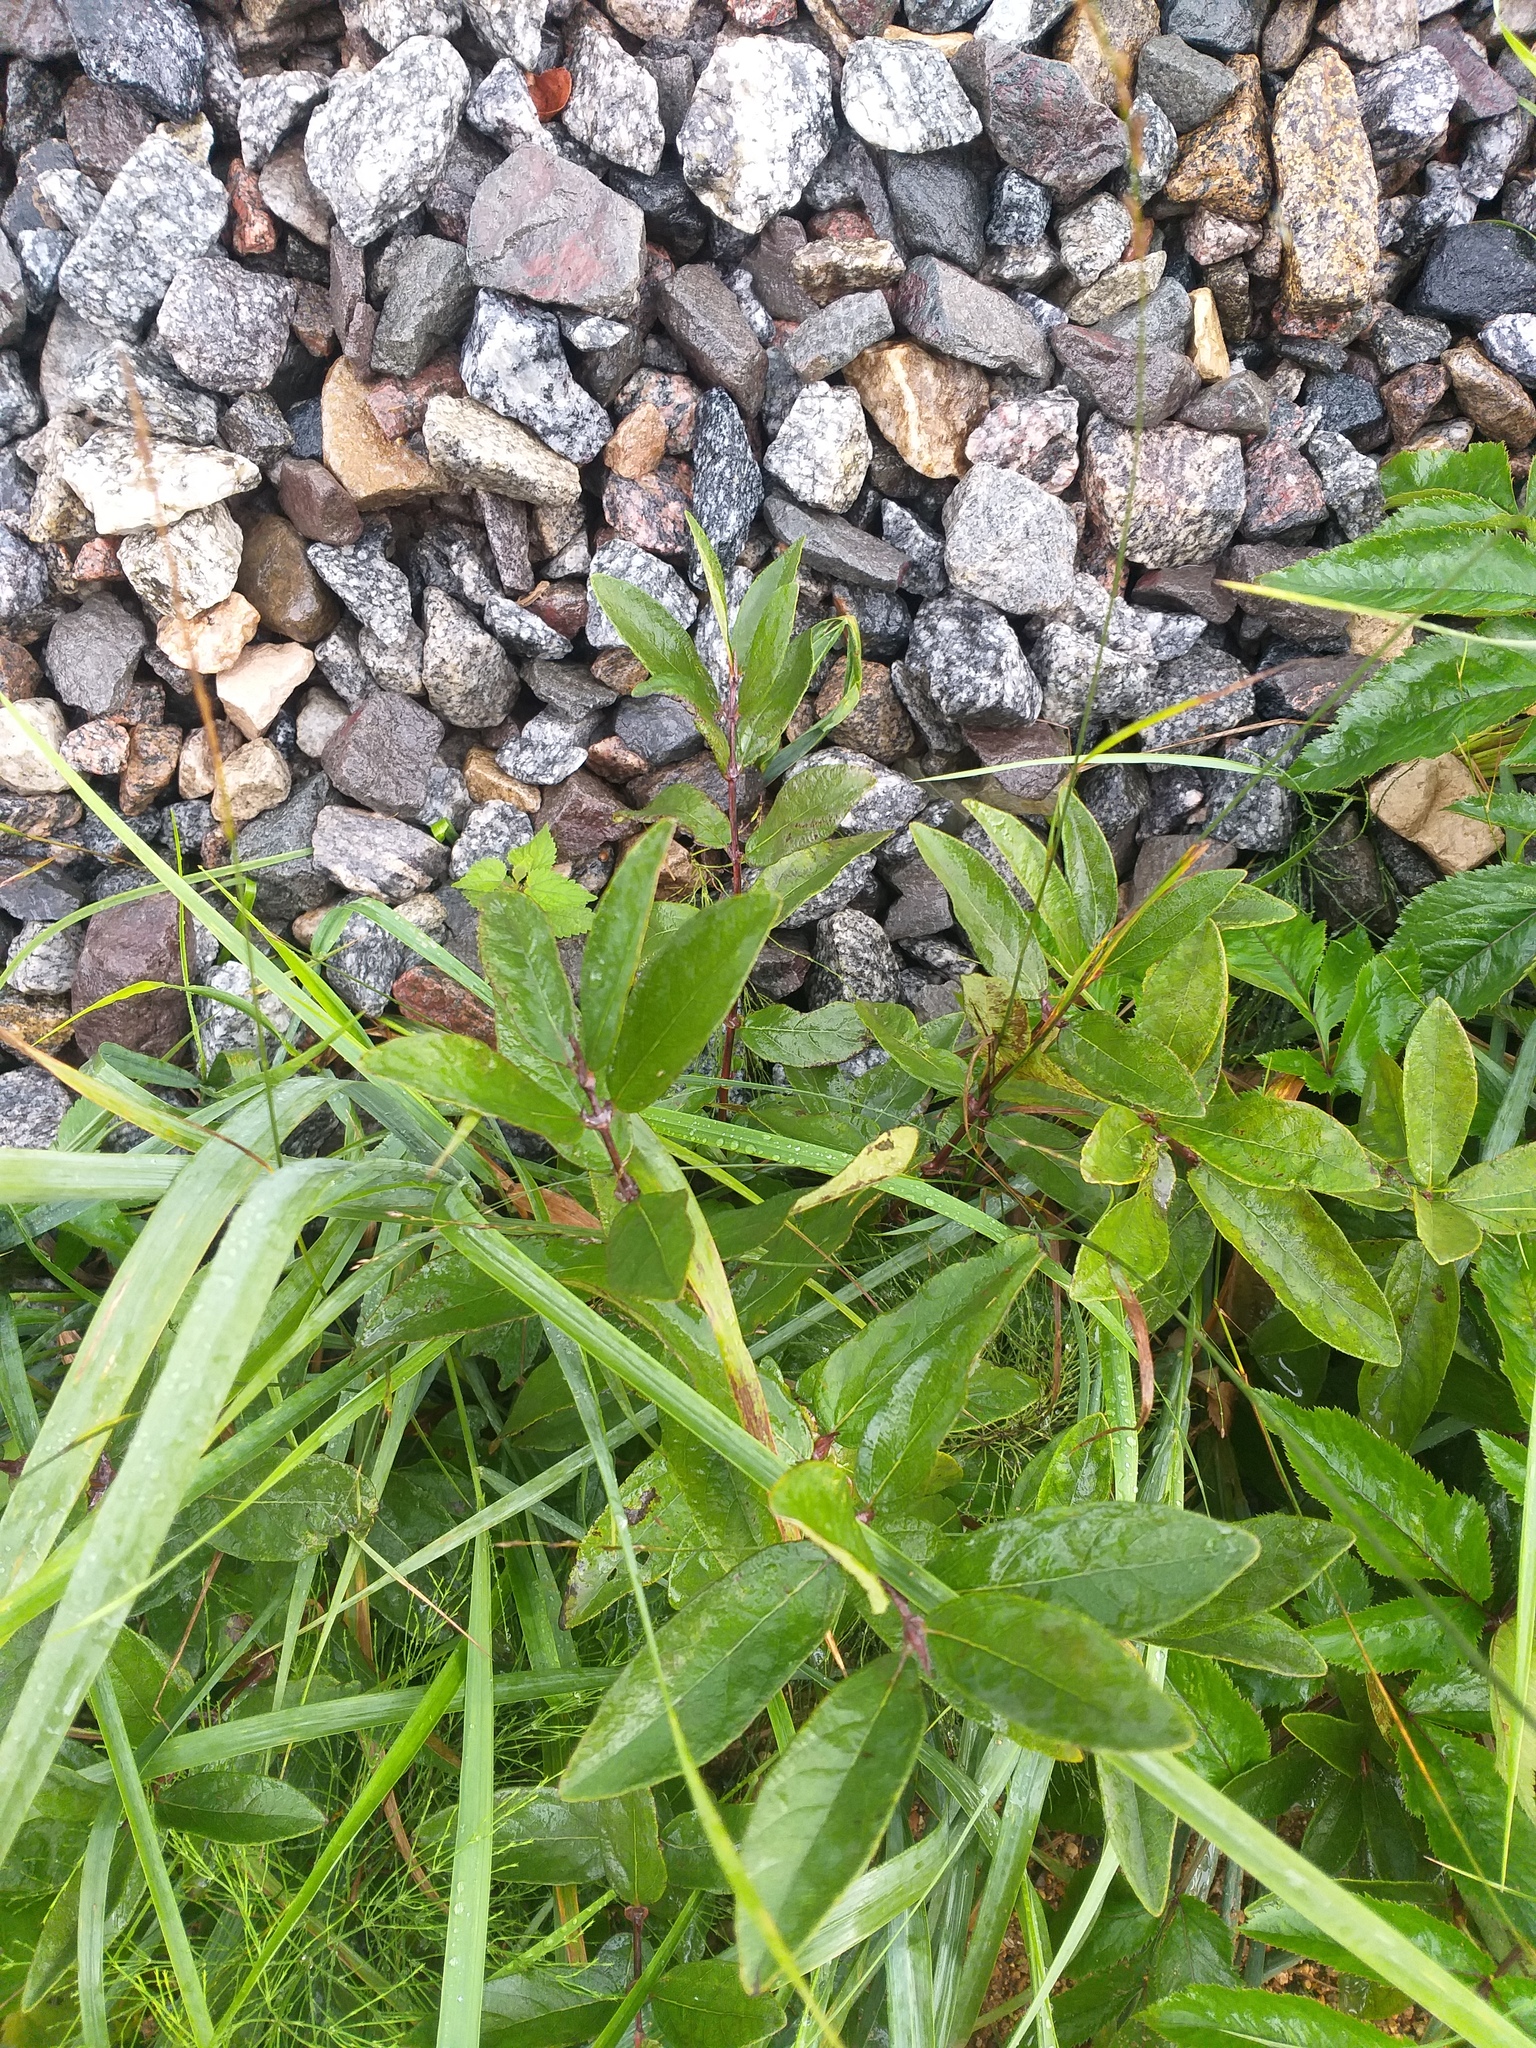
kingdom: Plantae
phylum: Tracheophyta
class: Magnoliopsida
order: Dipsacales
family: Caprifoliaceae
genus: Lonicera
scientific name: Lonicera caerulea
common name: Blue honeysuckle
